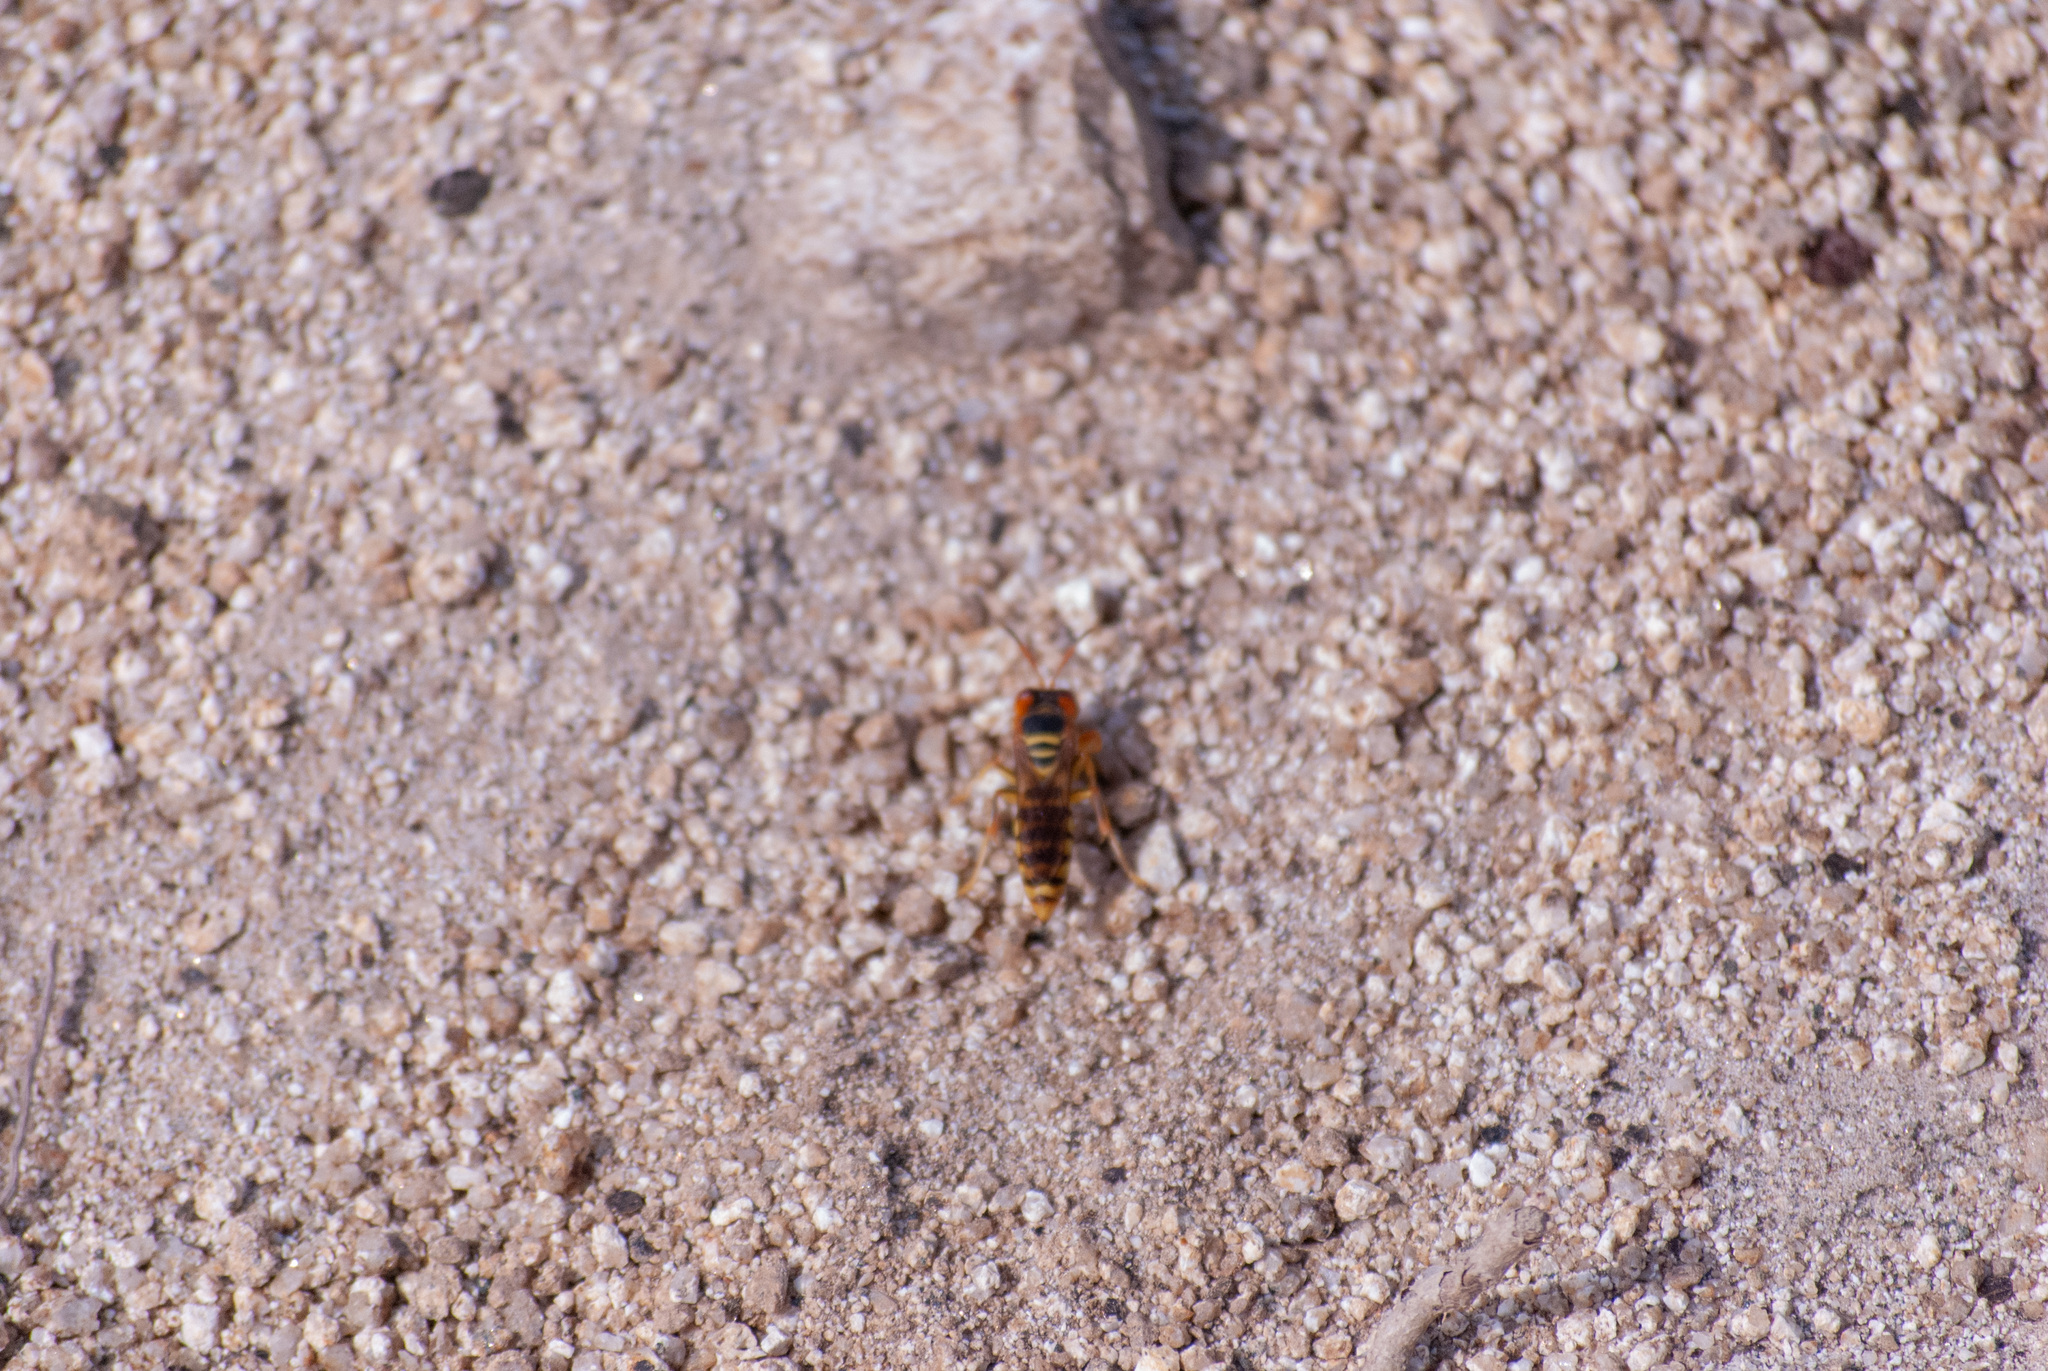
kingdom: Animalia
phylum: Arthropoda
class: Insecta
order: Hymenoptera
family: Crabronidae
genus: Rubrica
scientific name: Rubrica
